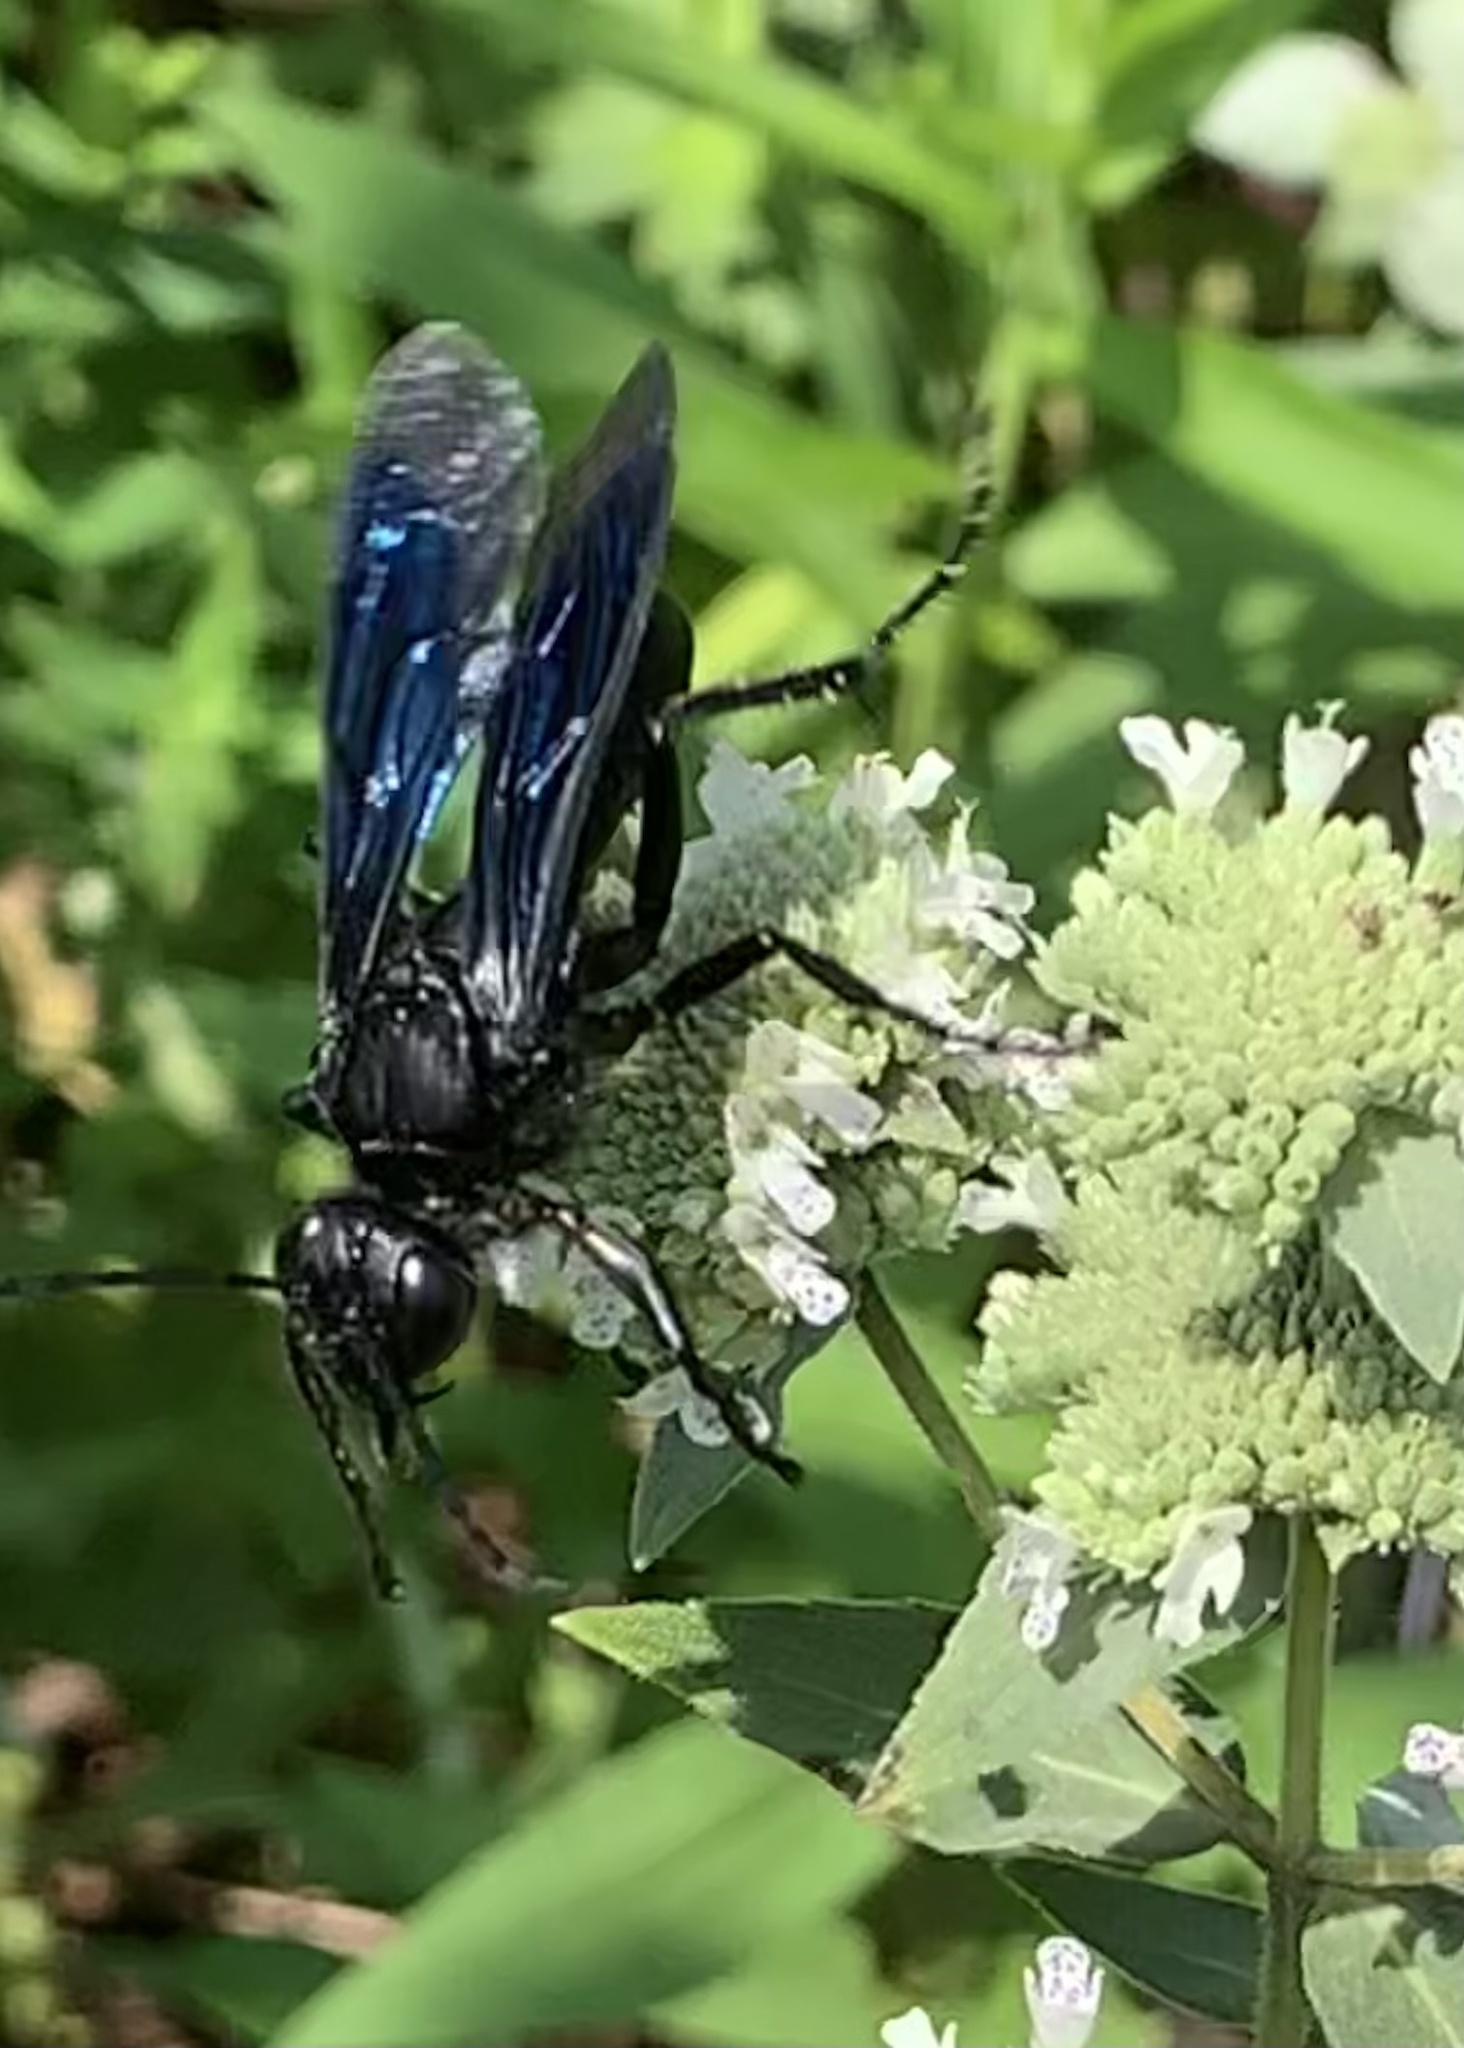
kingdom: Animalia
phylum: Arthropoda
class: Insecta
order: Hymenoptera
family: Sphecidae
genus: Sphex
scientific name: Sphex pensylvanicus
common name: Great black digger wasp
